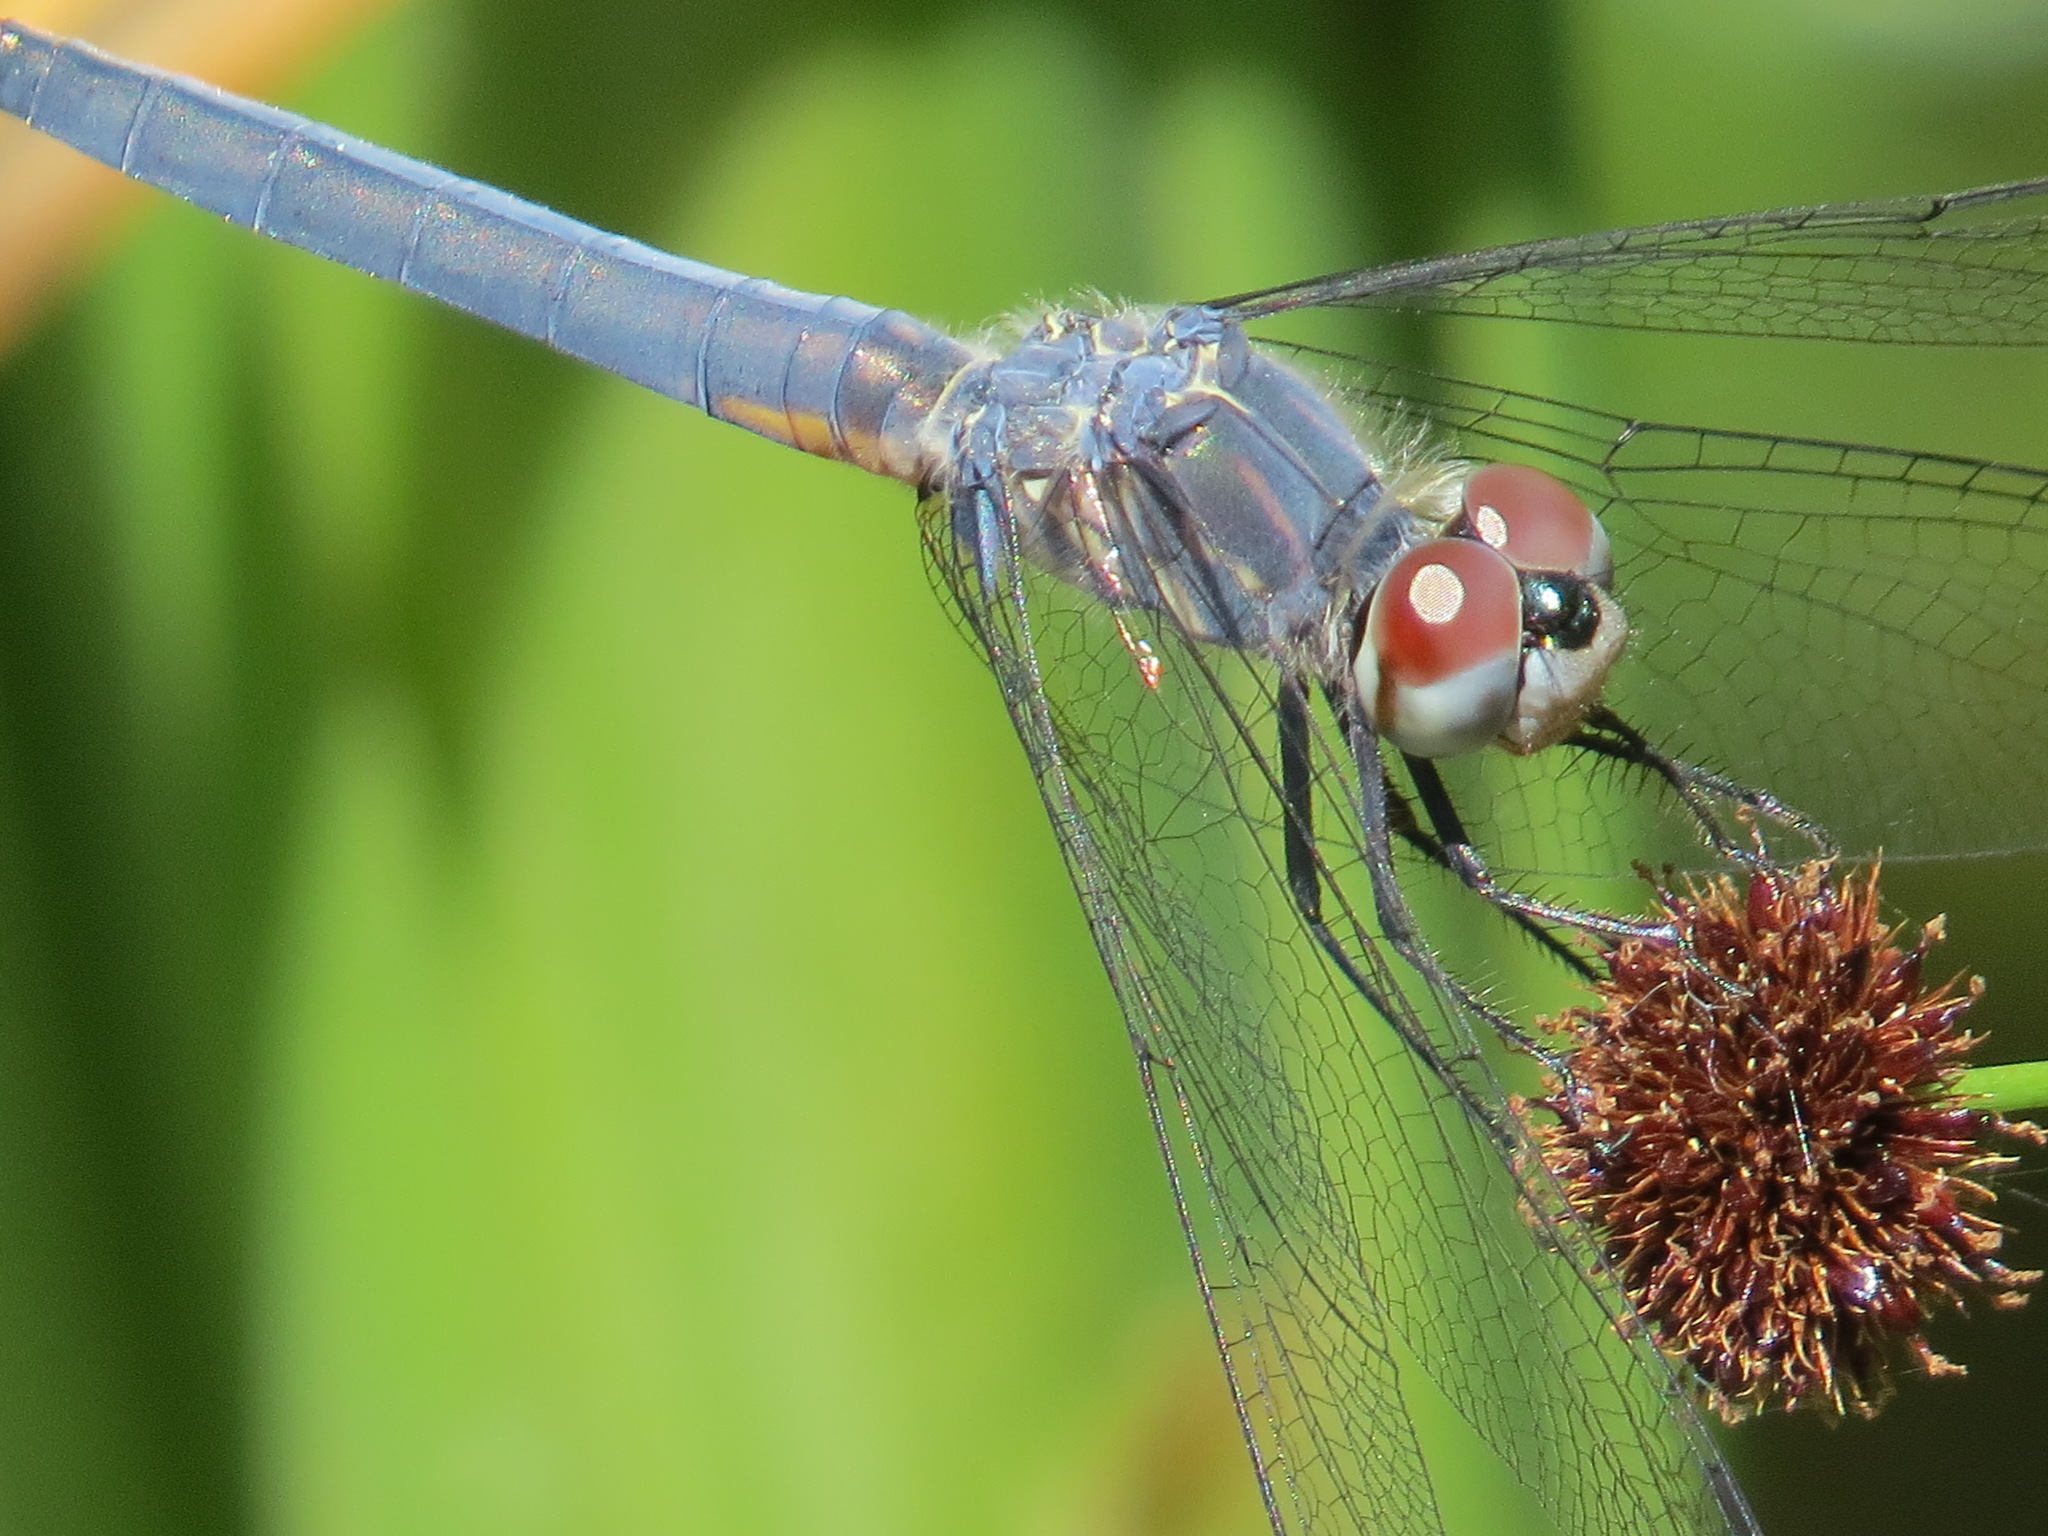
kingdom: Animalia
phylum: Arthropoda
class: Insecta
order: Odonata
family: Libellulidae
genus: Pachydiplax
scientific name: Pachydiplax longipennis
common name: Blue dasher
